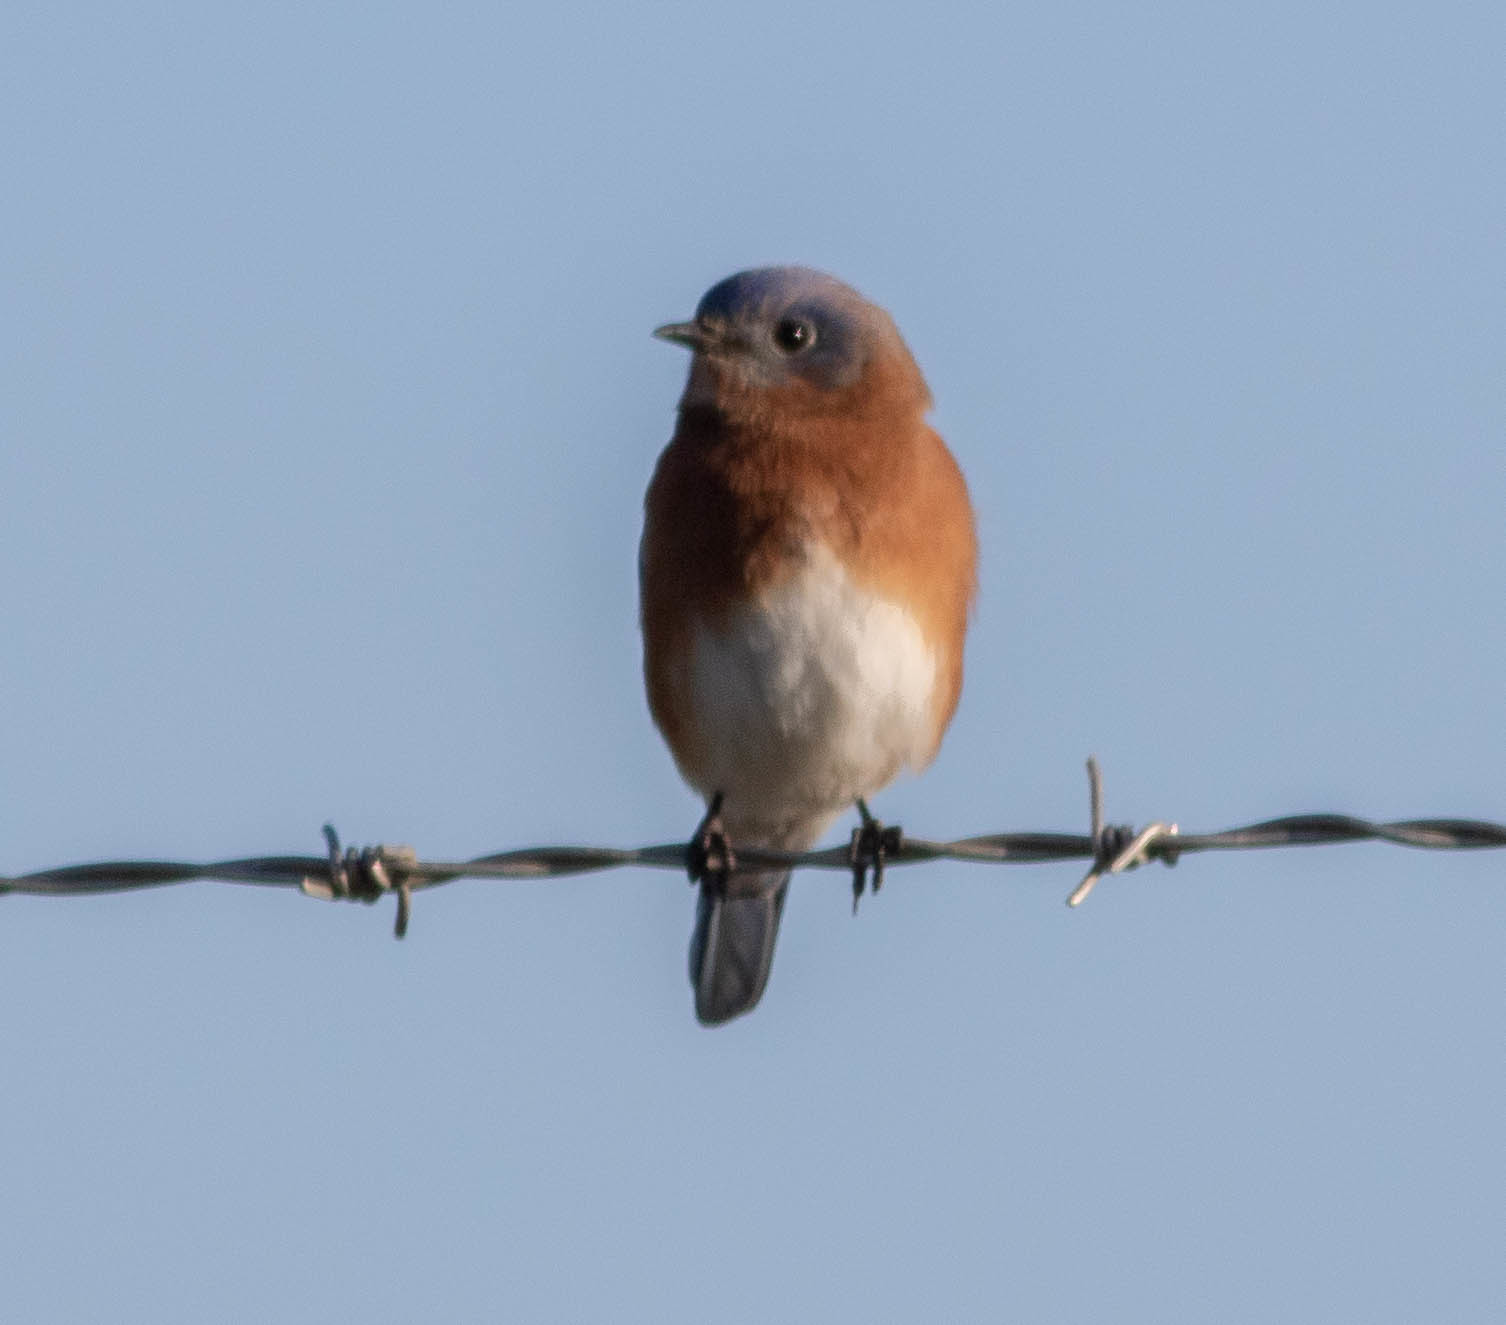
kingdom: Animalia
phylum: Chordata
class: Aves
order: Passeriformes
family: Turdidae
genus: Sialia
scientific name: Sialia sialis
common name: Eastern bluebird
